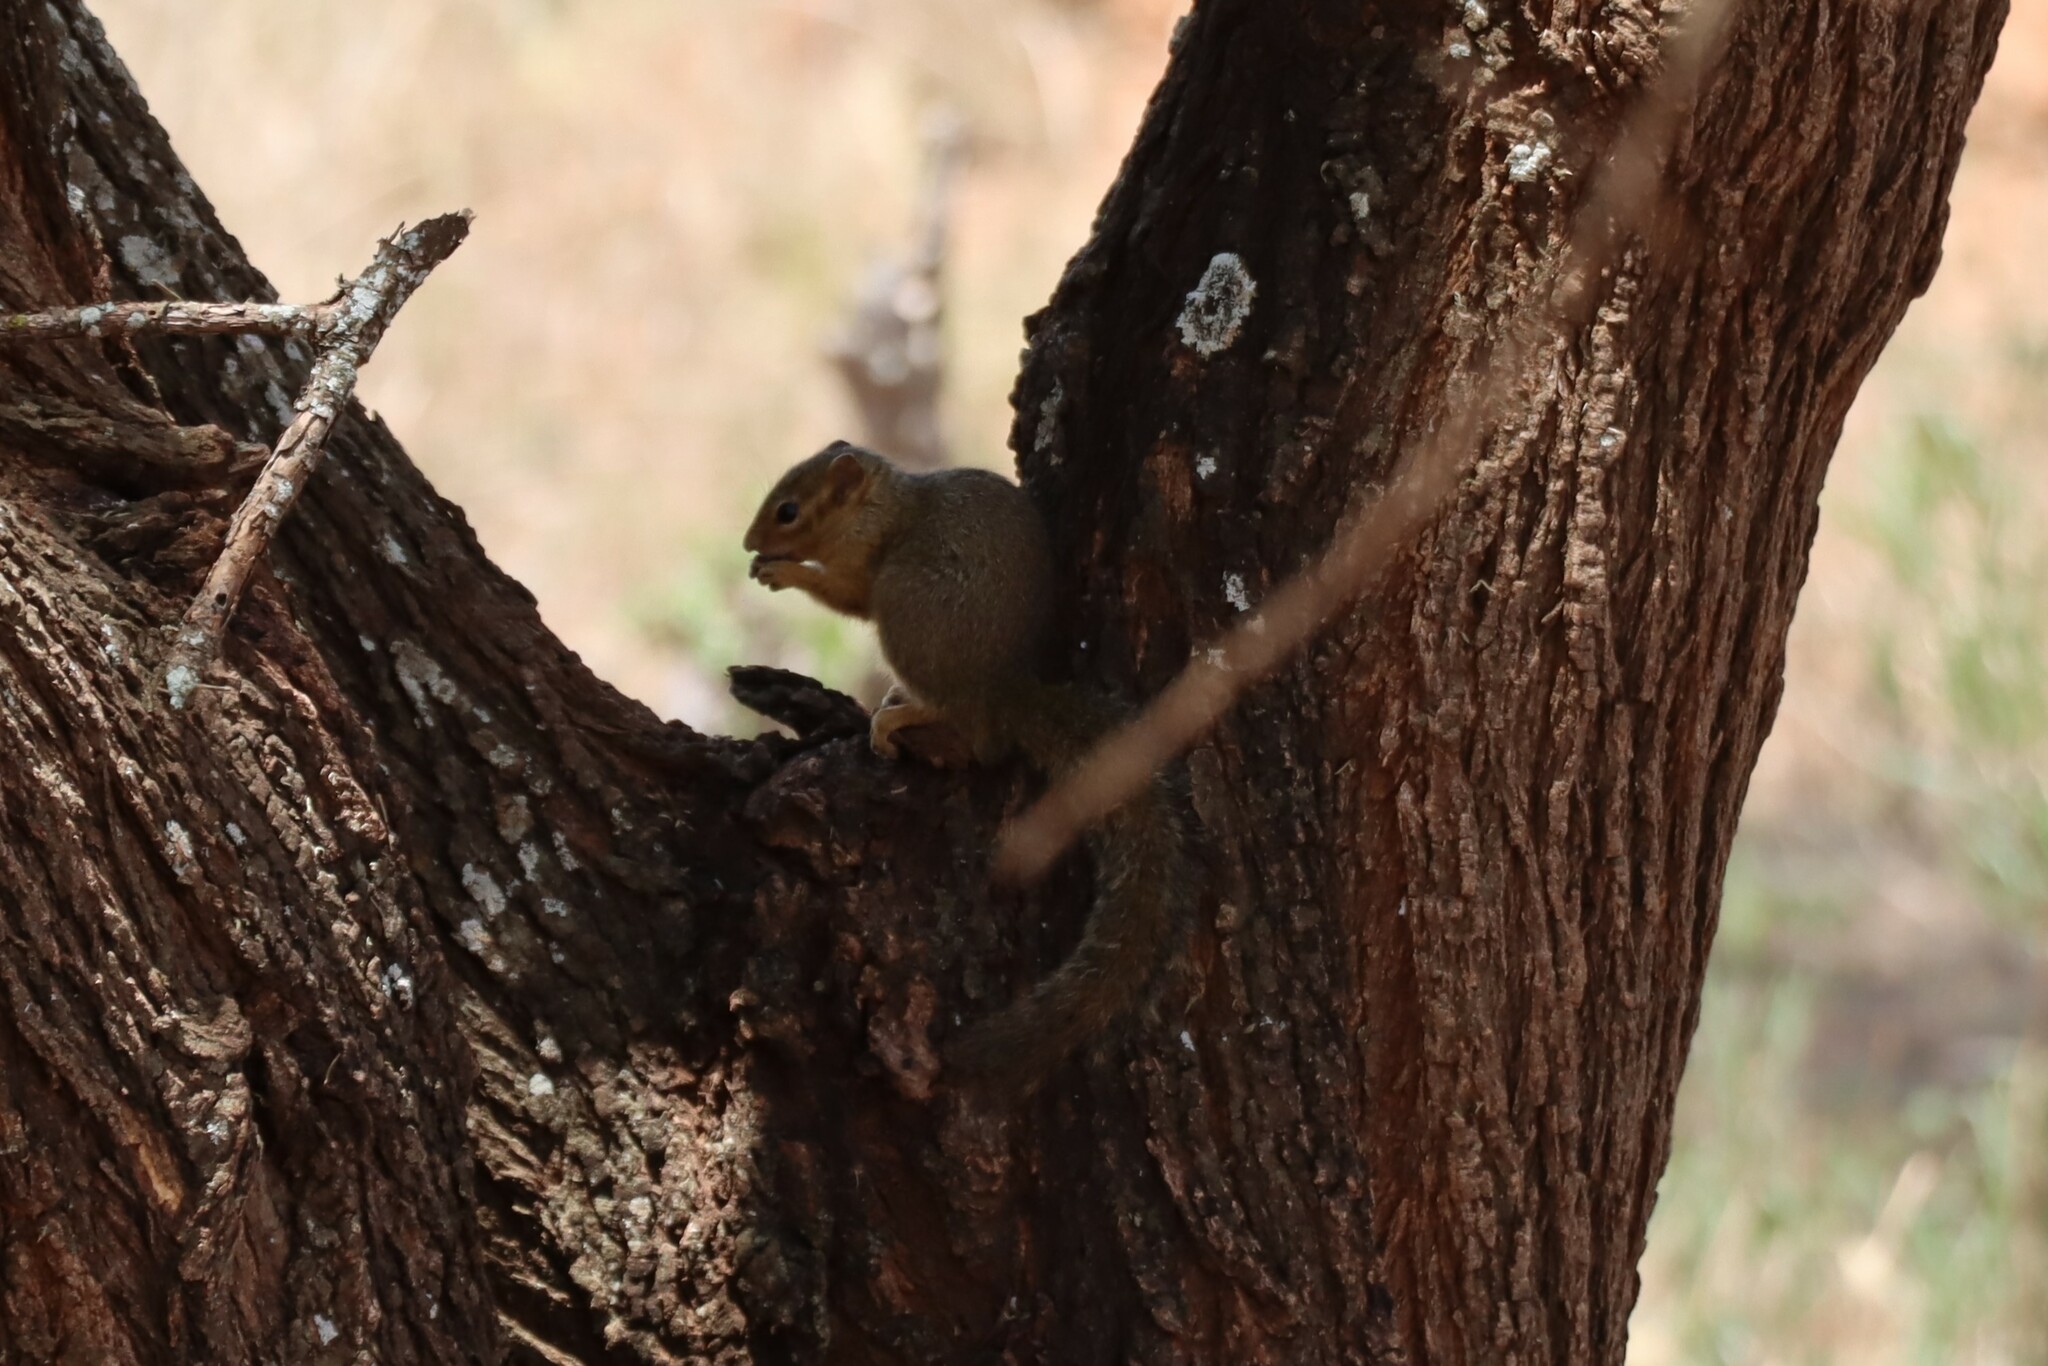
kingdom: Animalia
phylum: Chordata
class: Mammalia
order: Rodentia
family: Sciuridae
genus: Paraxerus
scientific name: Paraxerus ochraceus
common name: Ochre bush squirrel
